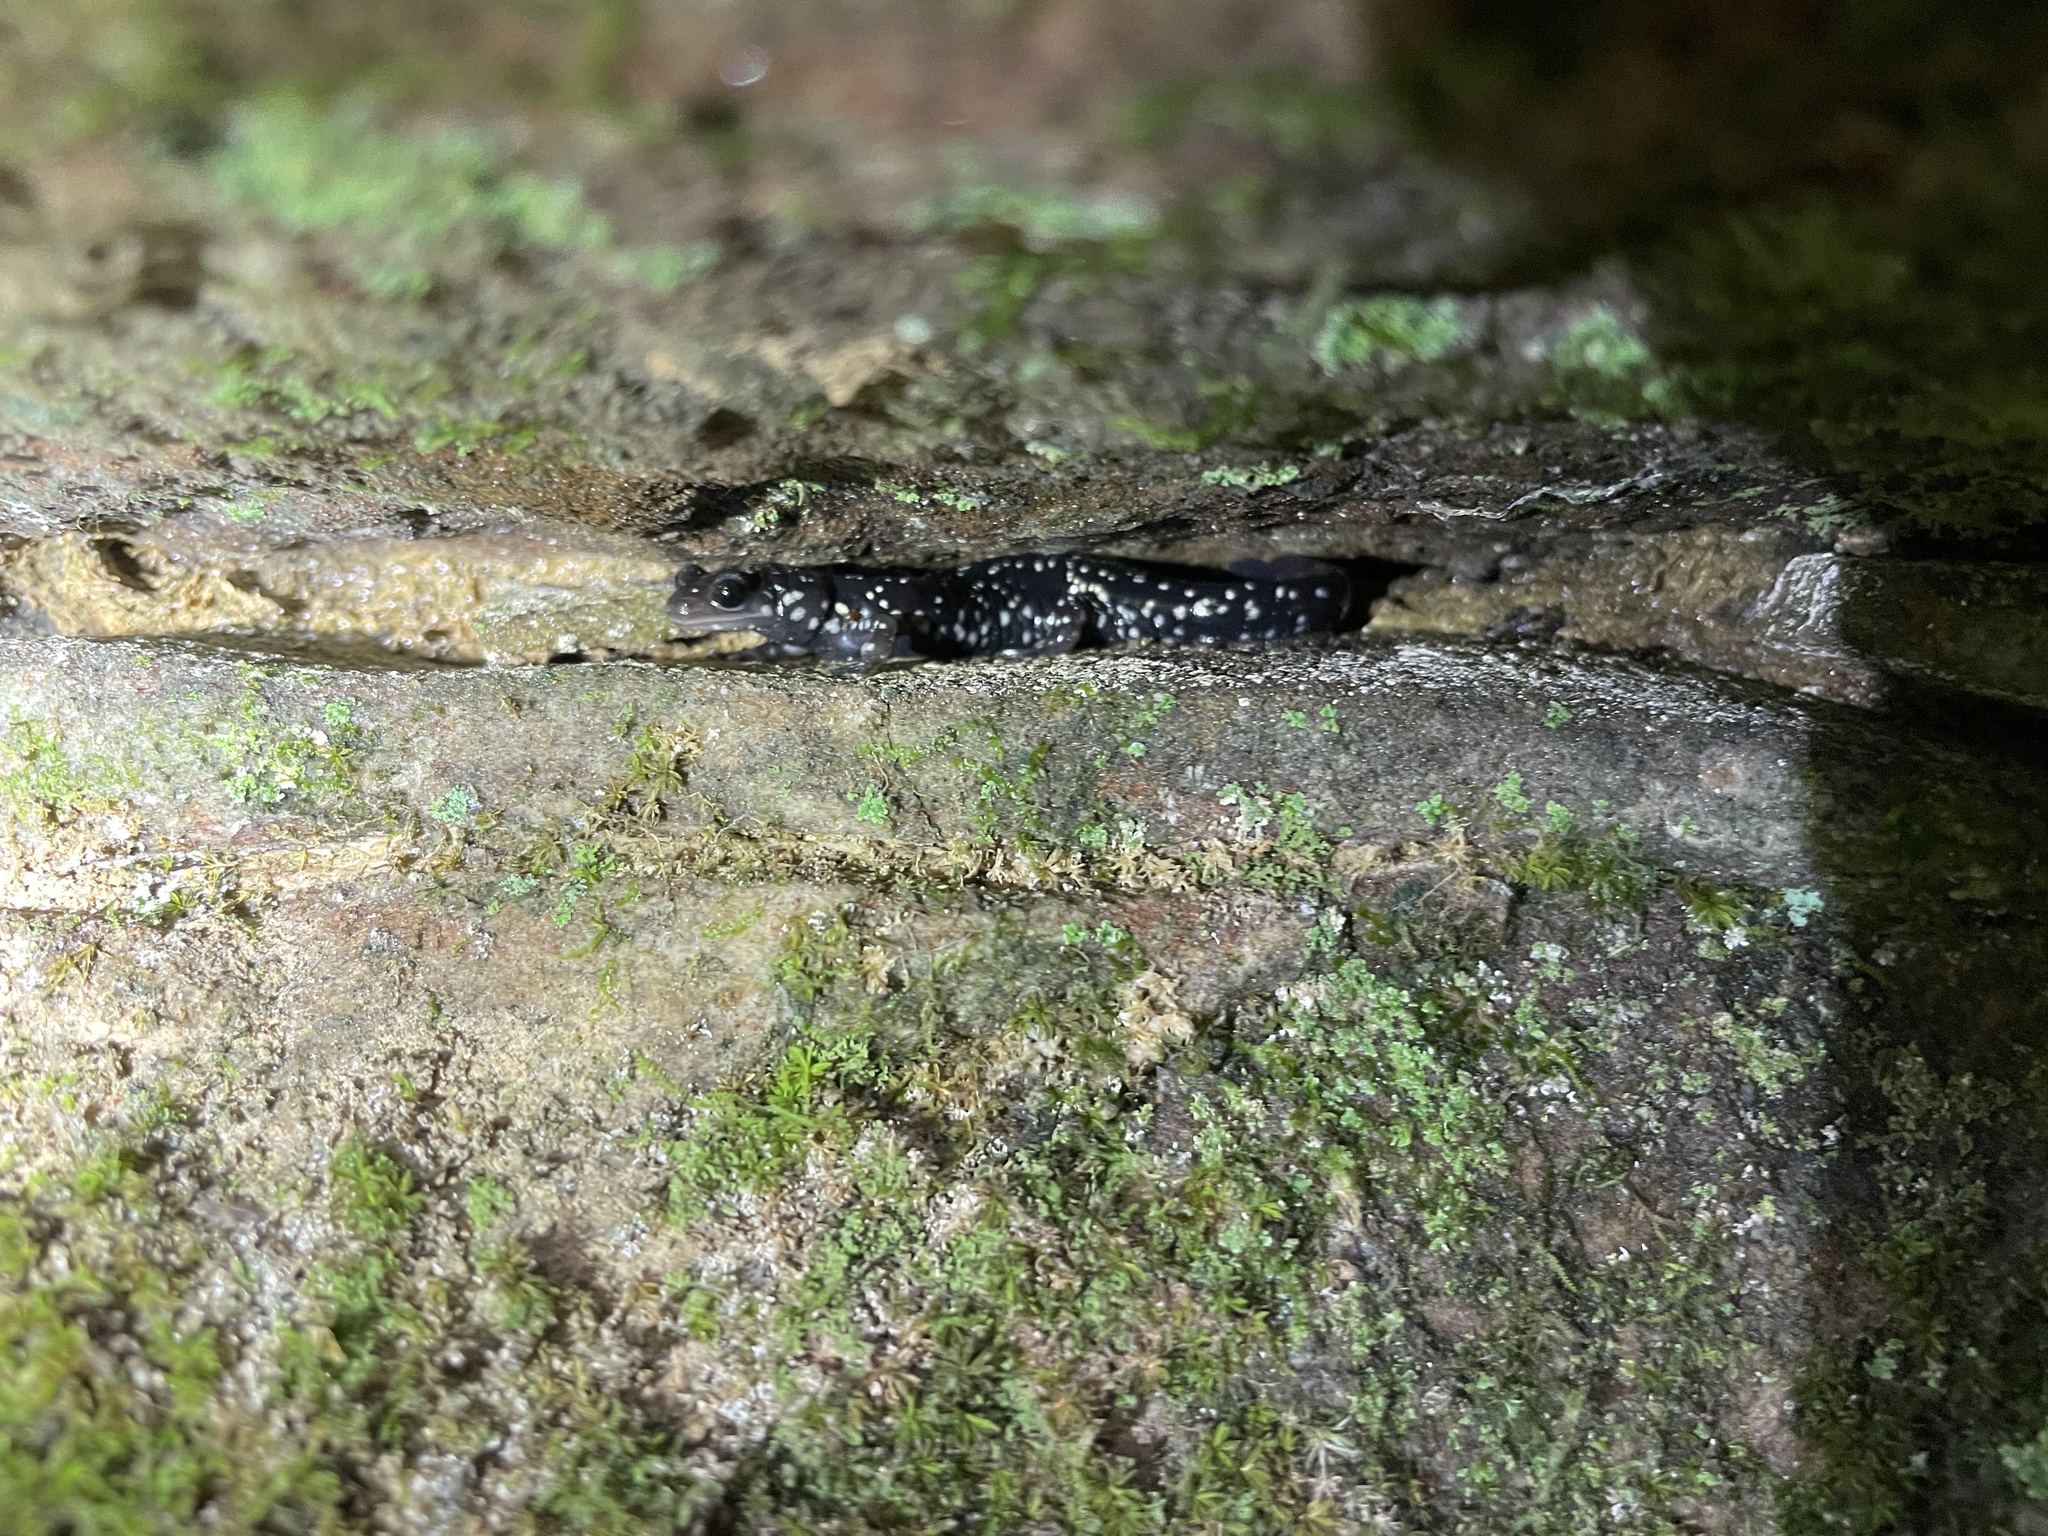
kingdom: Animalia
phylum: Chordata
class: Amphibia
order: Caudata
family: Plethodontidae
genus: Plethodon
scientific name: Plethodon glutinosus
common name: Northern slimy salamander
